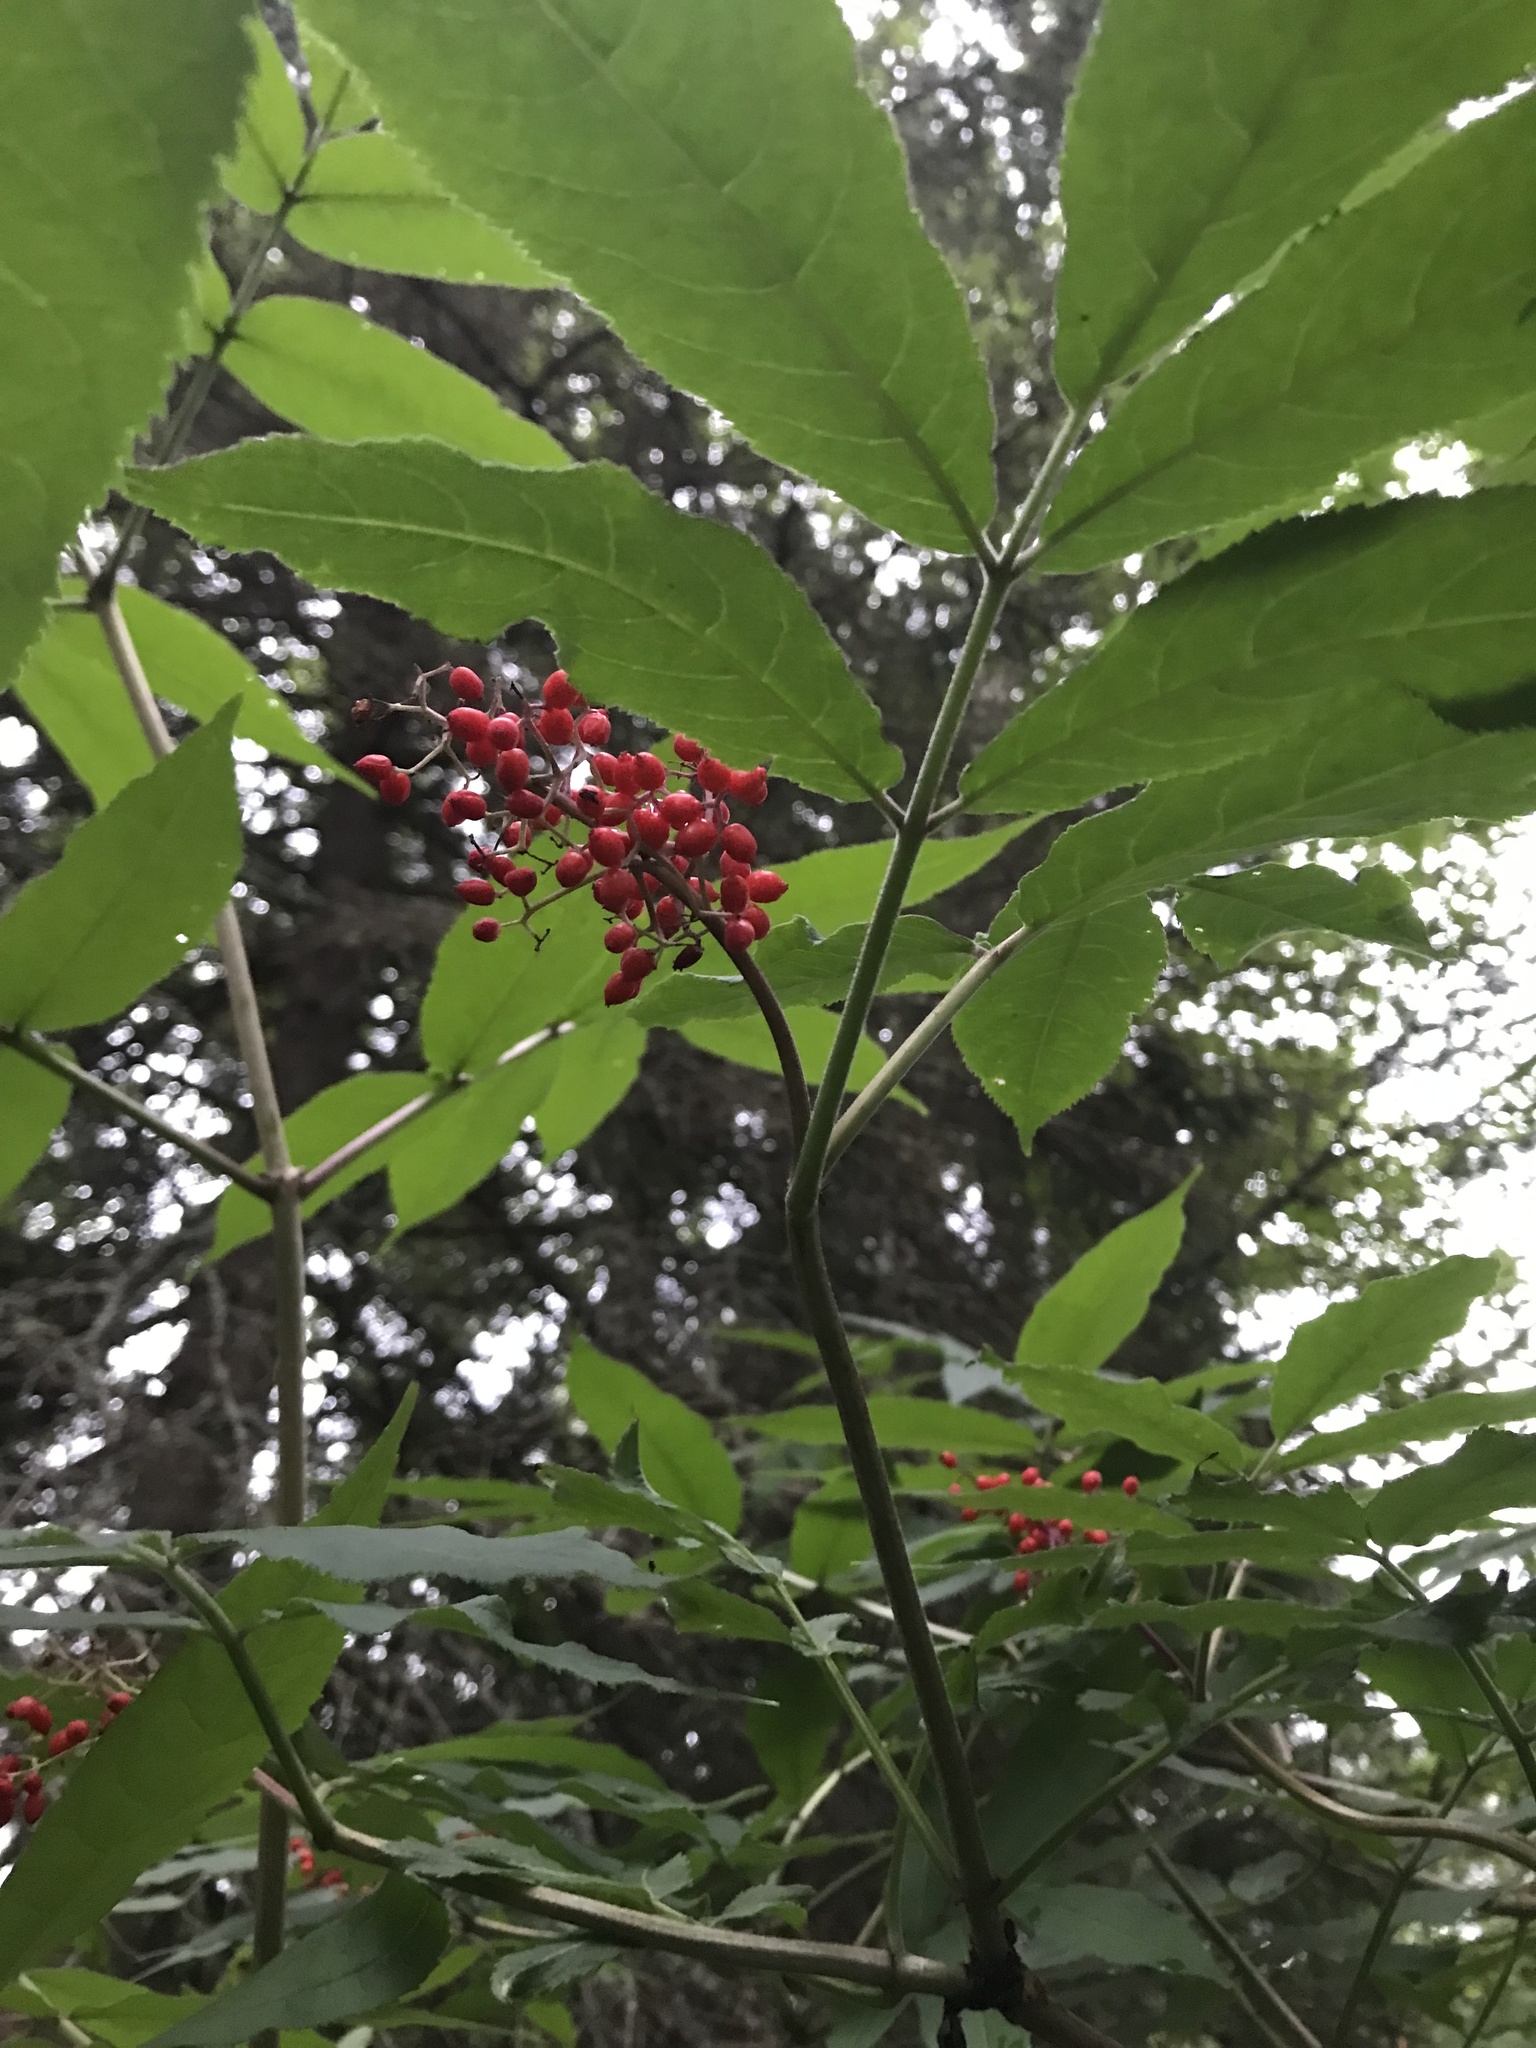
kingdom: Plantae
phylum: Tracheophyta
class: Magnoliopsida
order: Dipsacales
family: Viburnaceae
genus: Sambucus
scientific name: Sambucus racemosa
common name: Red-berried elder
